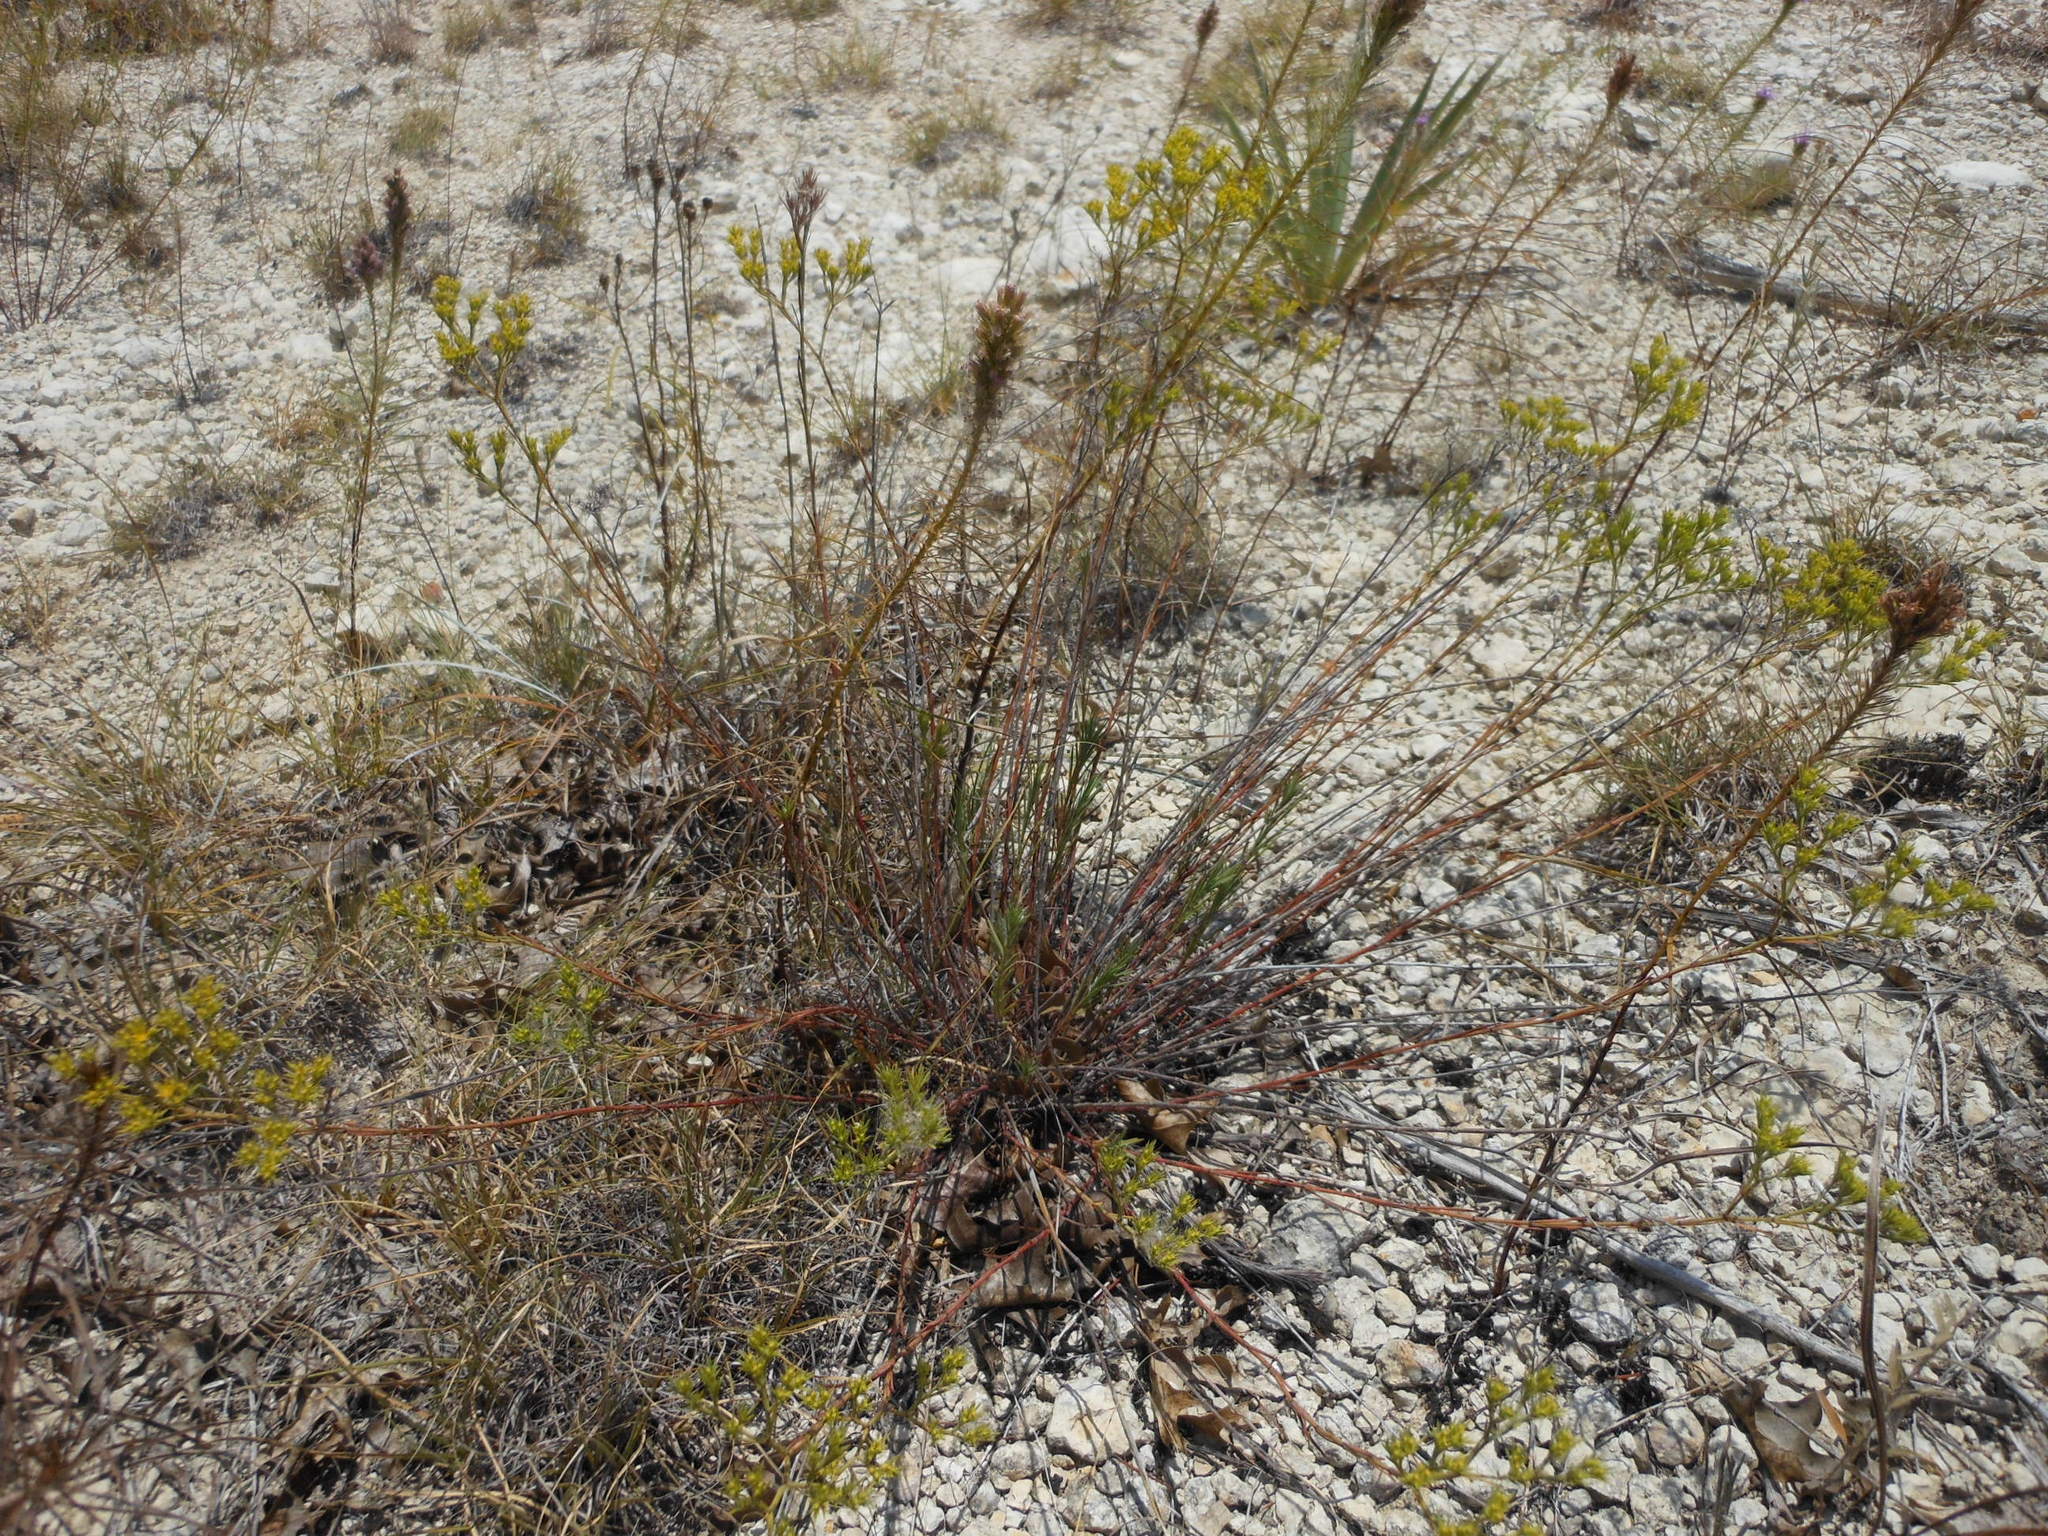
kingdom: Plantae
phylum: Tracheophyta
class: Magnoliopsida
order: Caryophyllales
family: Caryophyllaceae
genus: Paronychia
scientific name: Paronychia virginica
